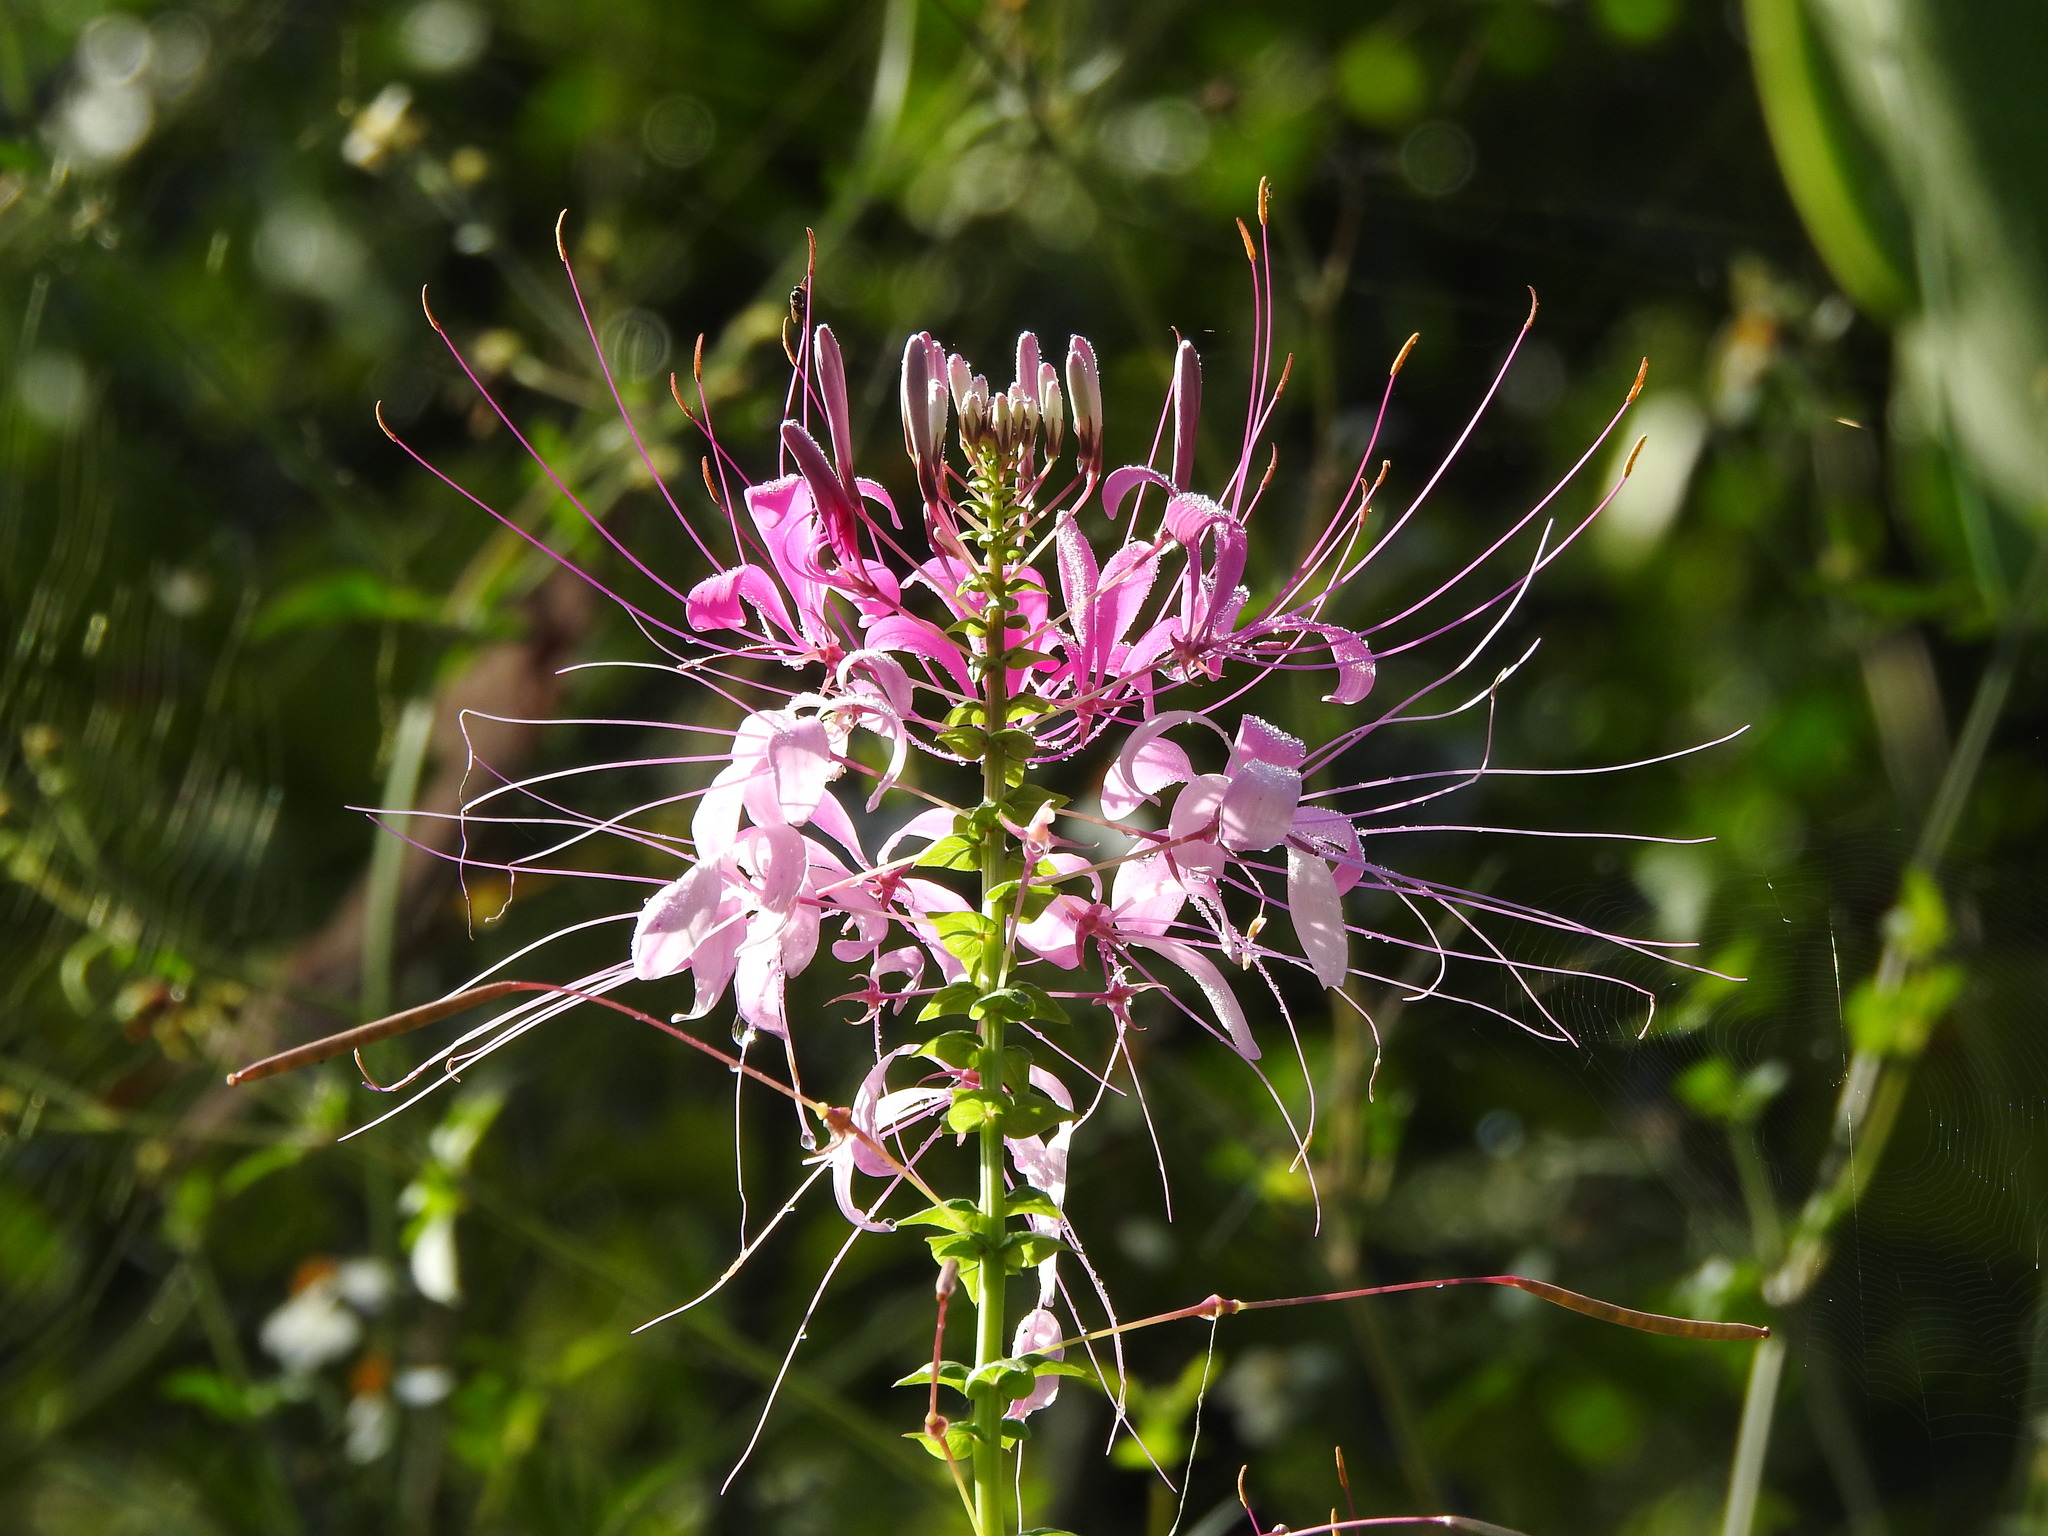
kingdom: Plantae
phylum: Tracheophyta
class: Magnoliopsida
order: Brassicales
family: Cleomaceae
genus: Tarenaya
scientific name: Tarenaya houtteana
